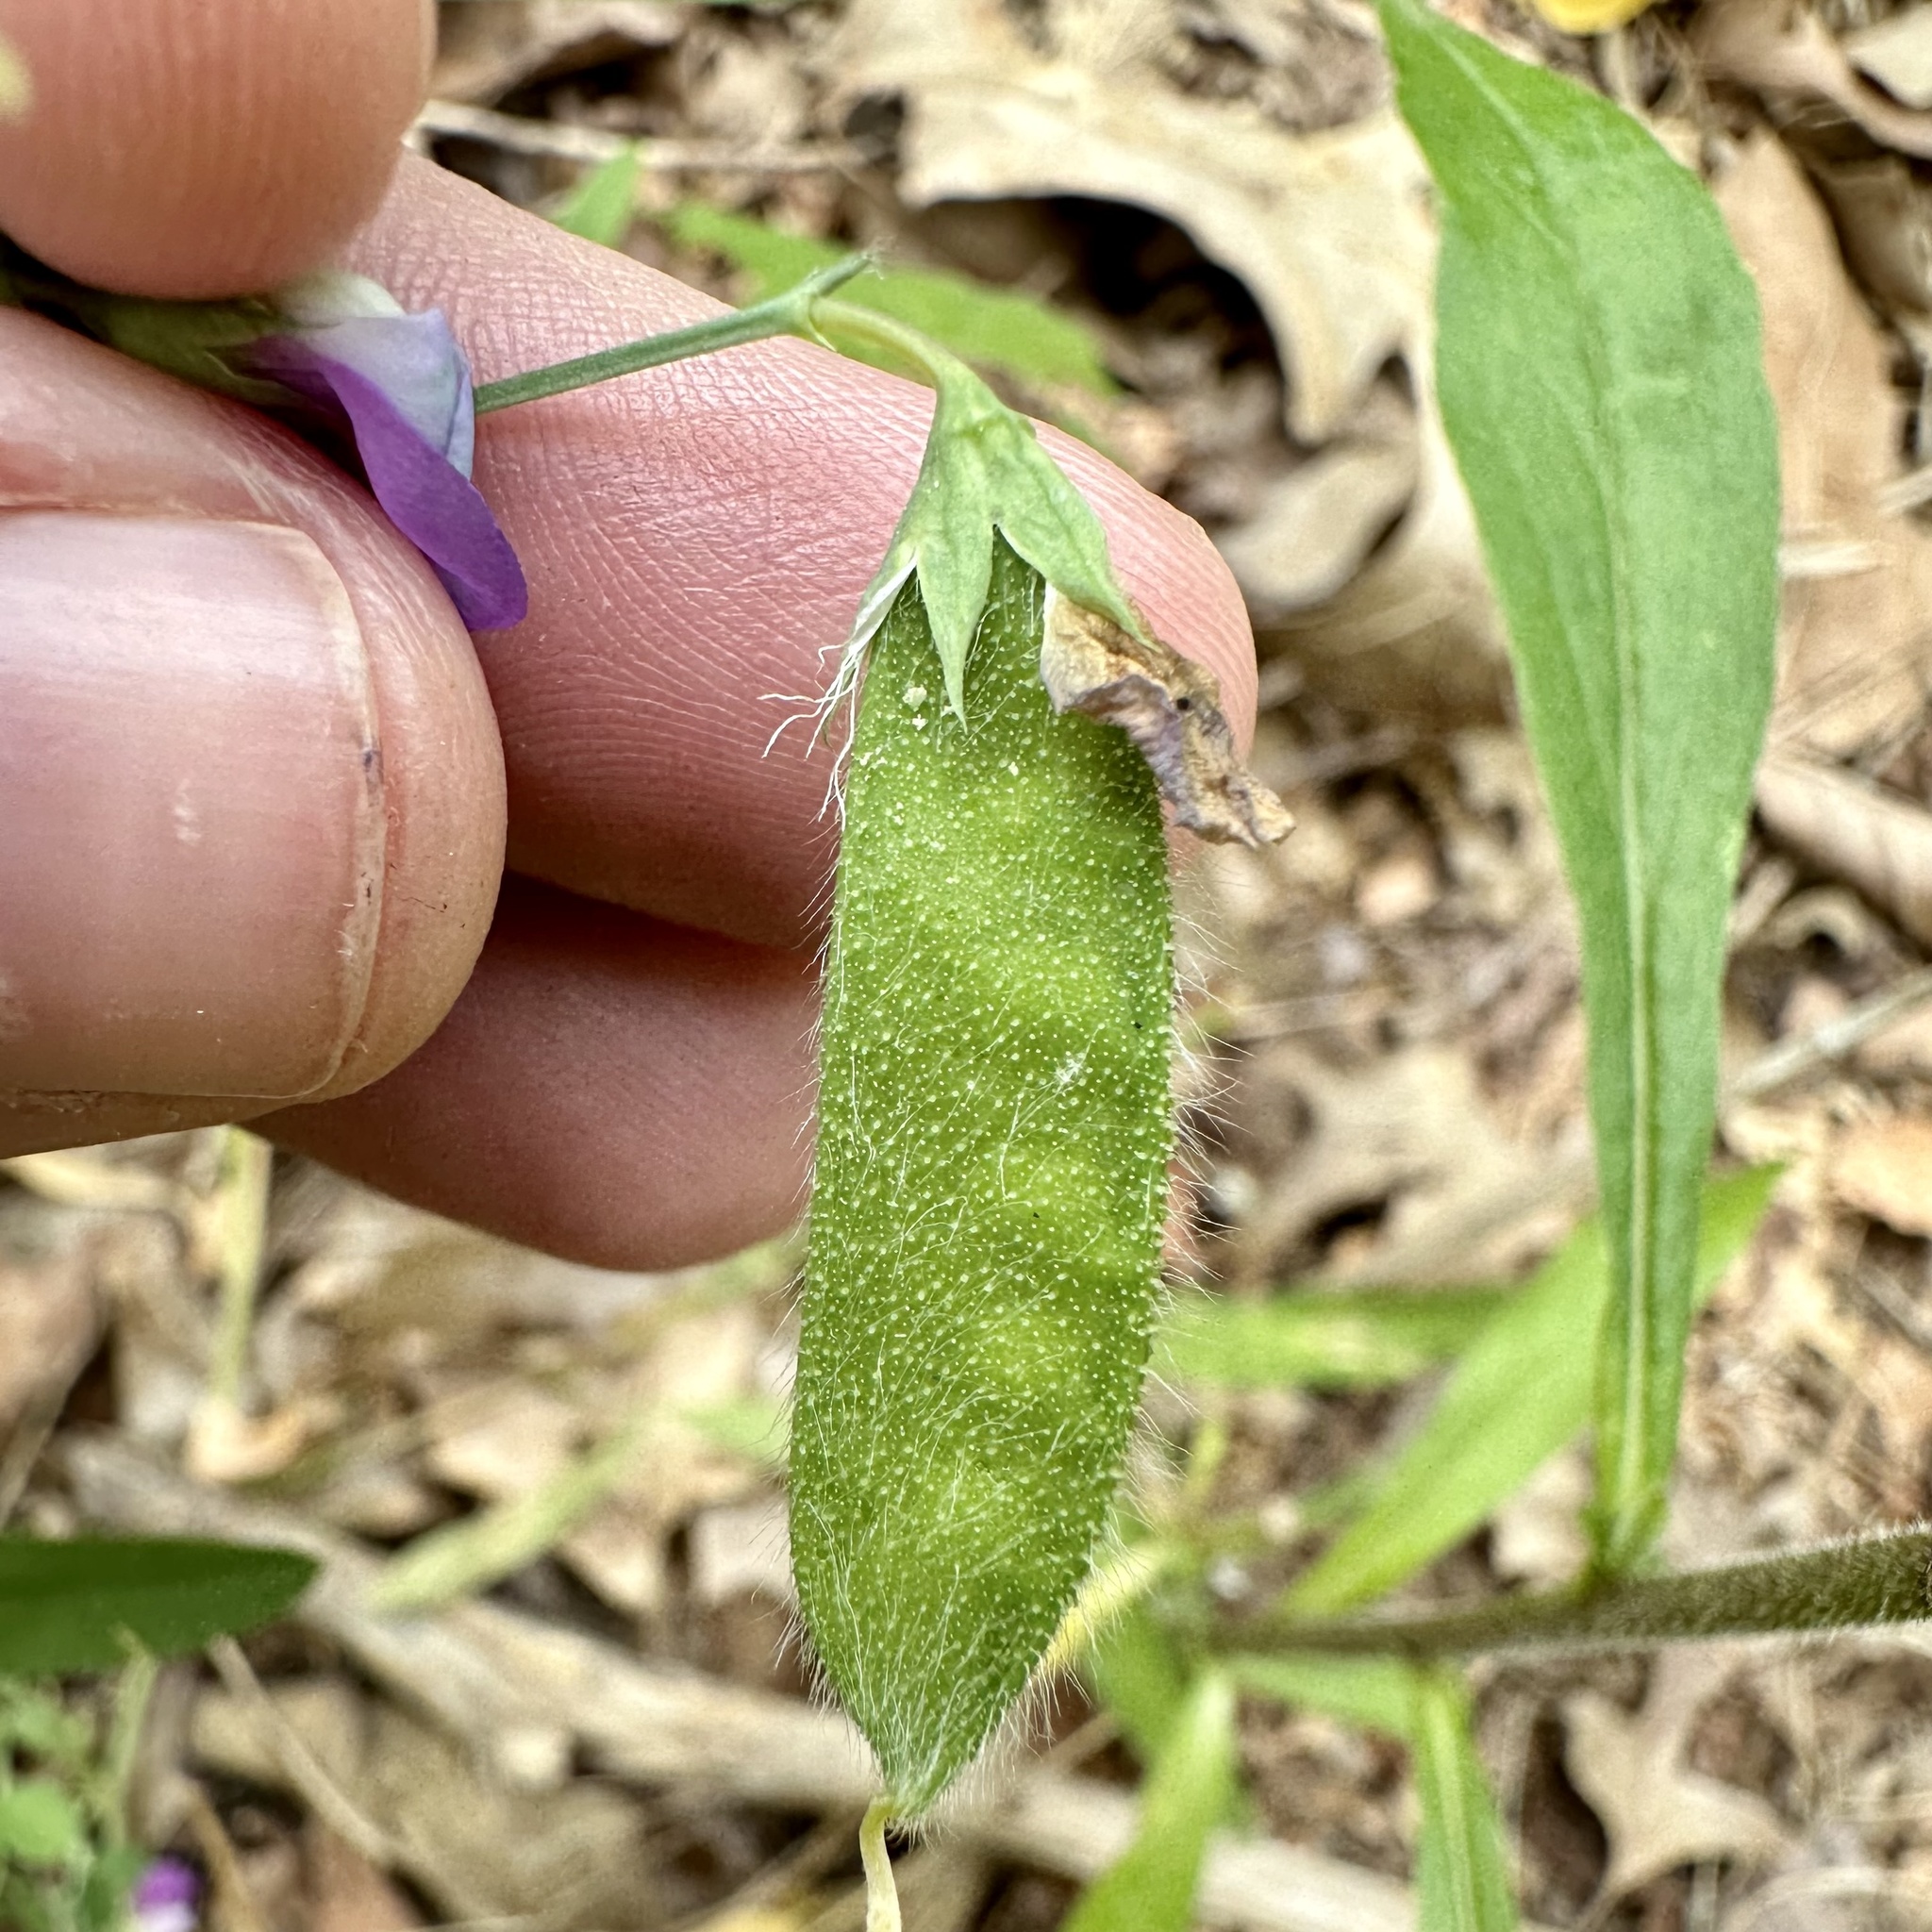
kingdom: Plantae
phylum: Tracheophyta
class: Magnoliopsida
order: Fabales
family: Fabaceae
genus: Lathyrus
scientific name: Lathyrus hirsutus
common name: Hairy vetchling
